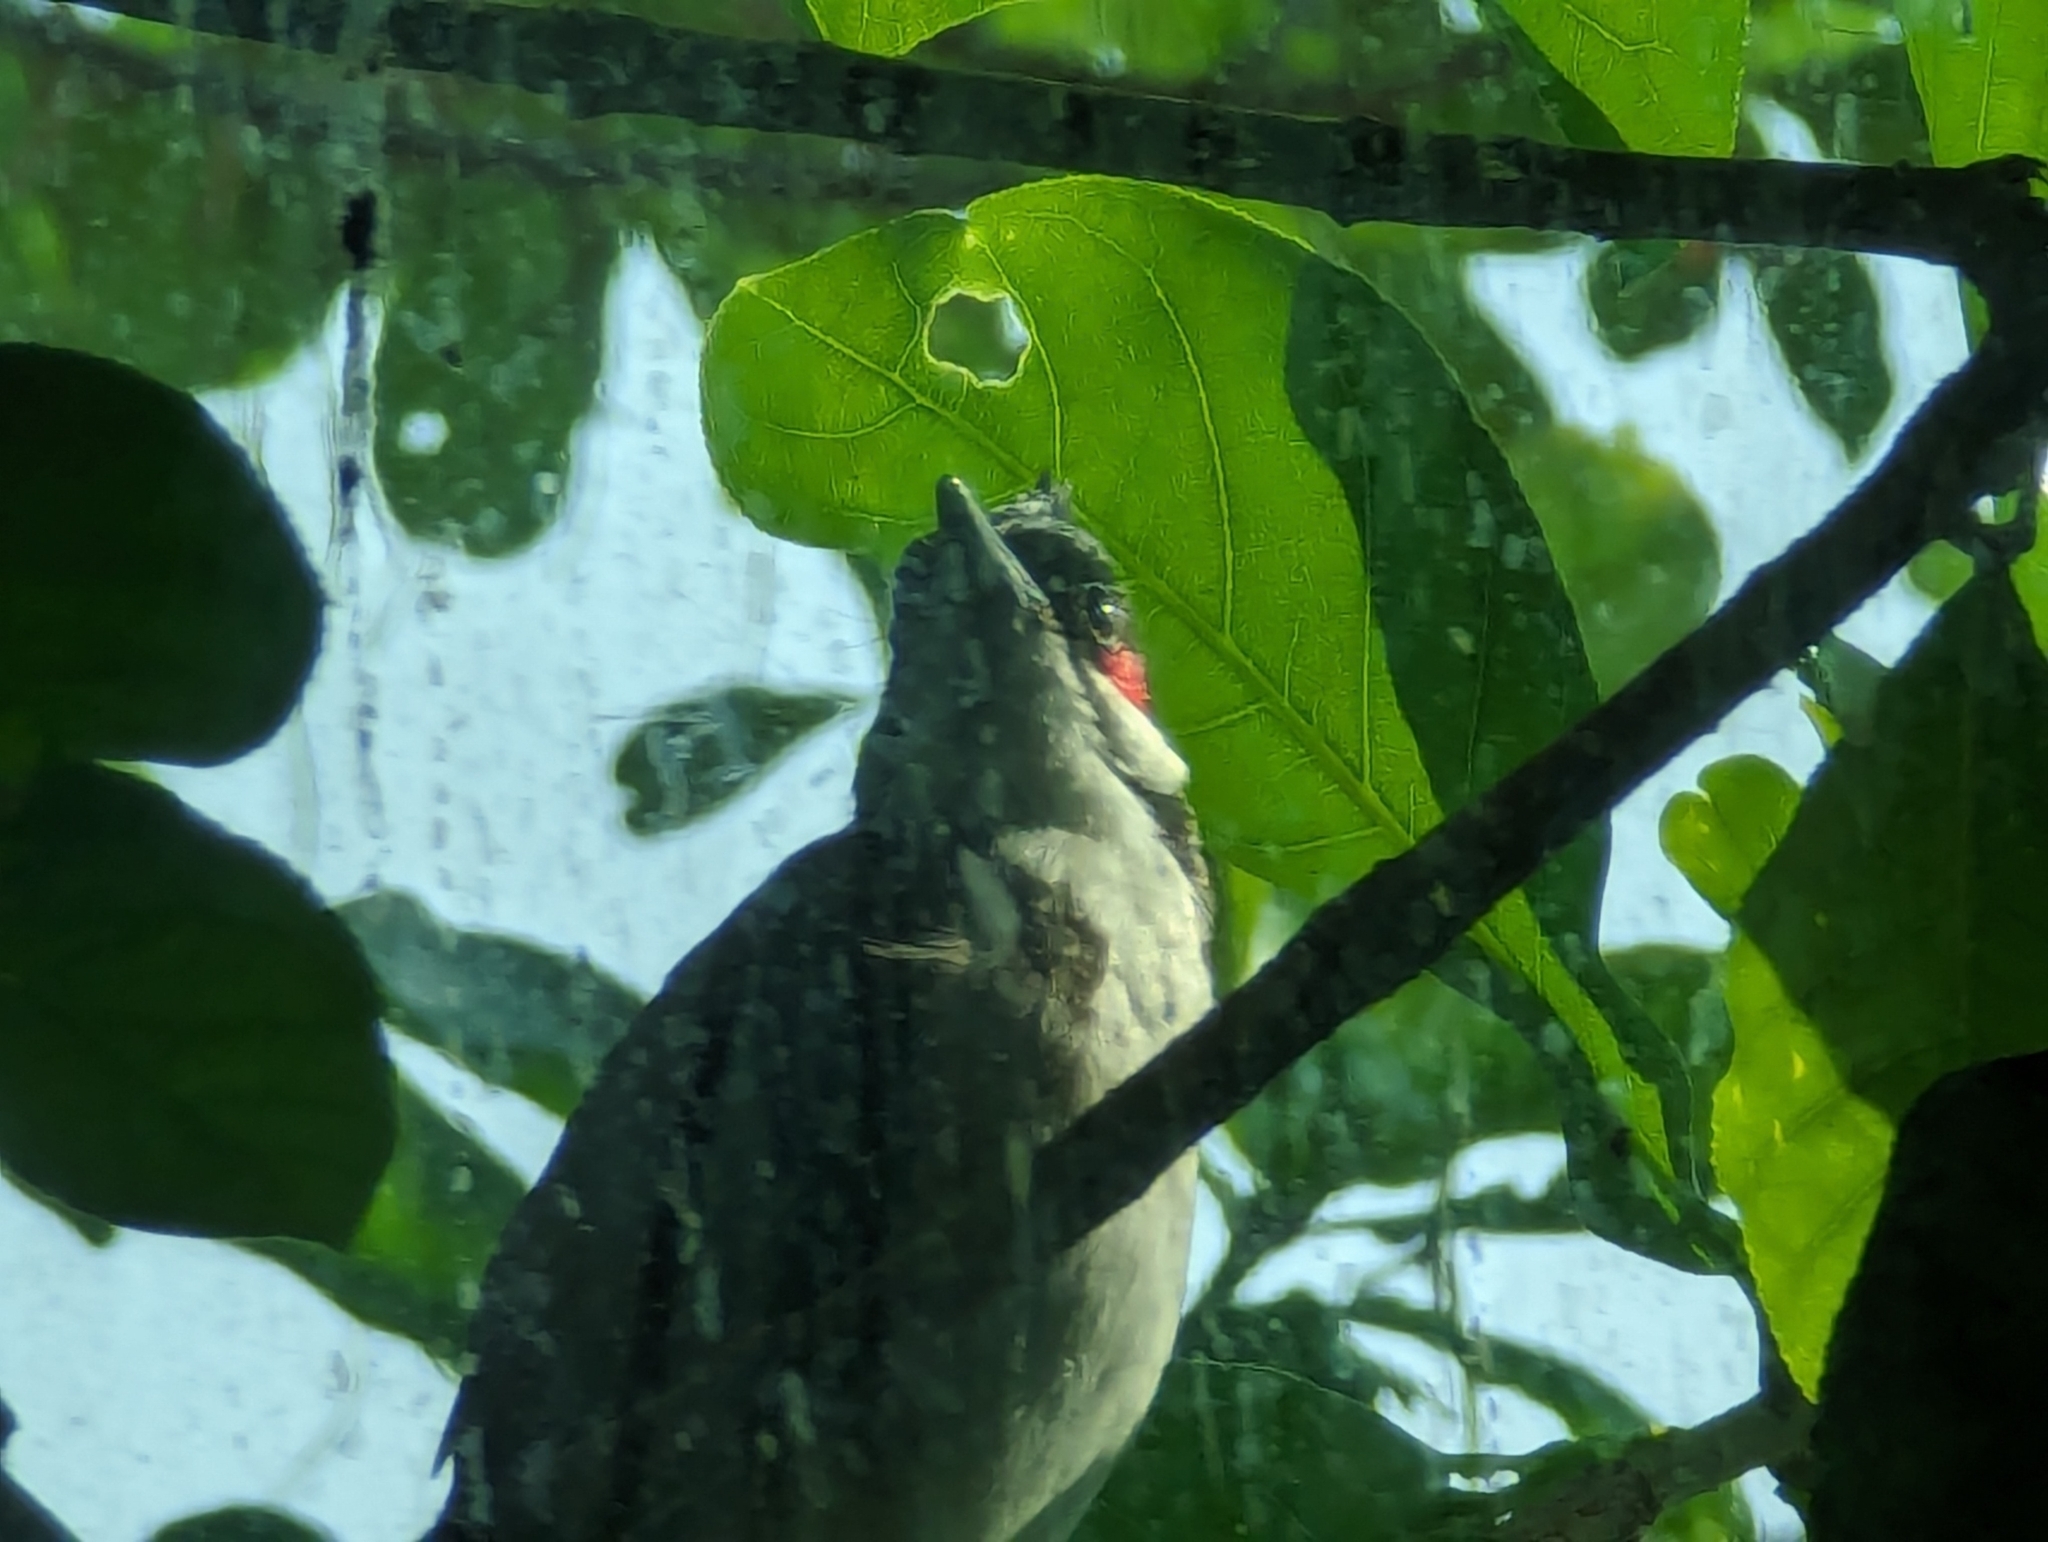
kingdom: Animalia
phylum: Chordata
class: Aves
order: Passeriformes
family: Pycnonotidae
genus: Pycnonotus
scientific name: Pycnonotus jocosus
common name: Red-whiskered bulbul
